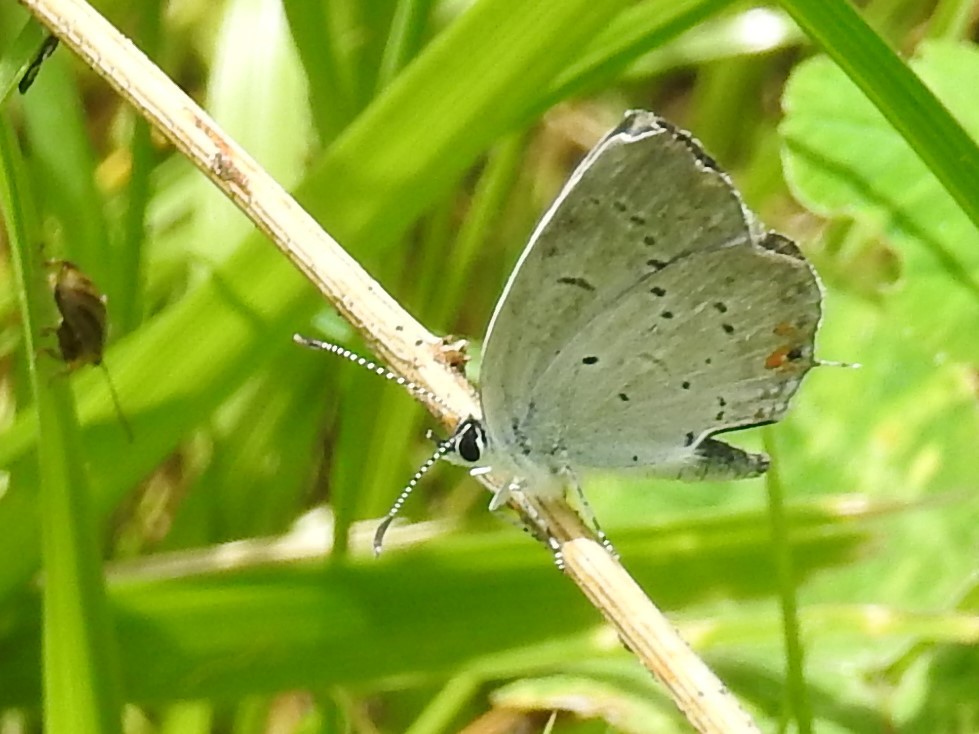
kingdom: Animalia
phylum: Arthropoda
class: Insecta
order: Lepidoptera
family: Lycaenidae
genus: Elkalyce
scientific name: Elkalyce comyntas
